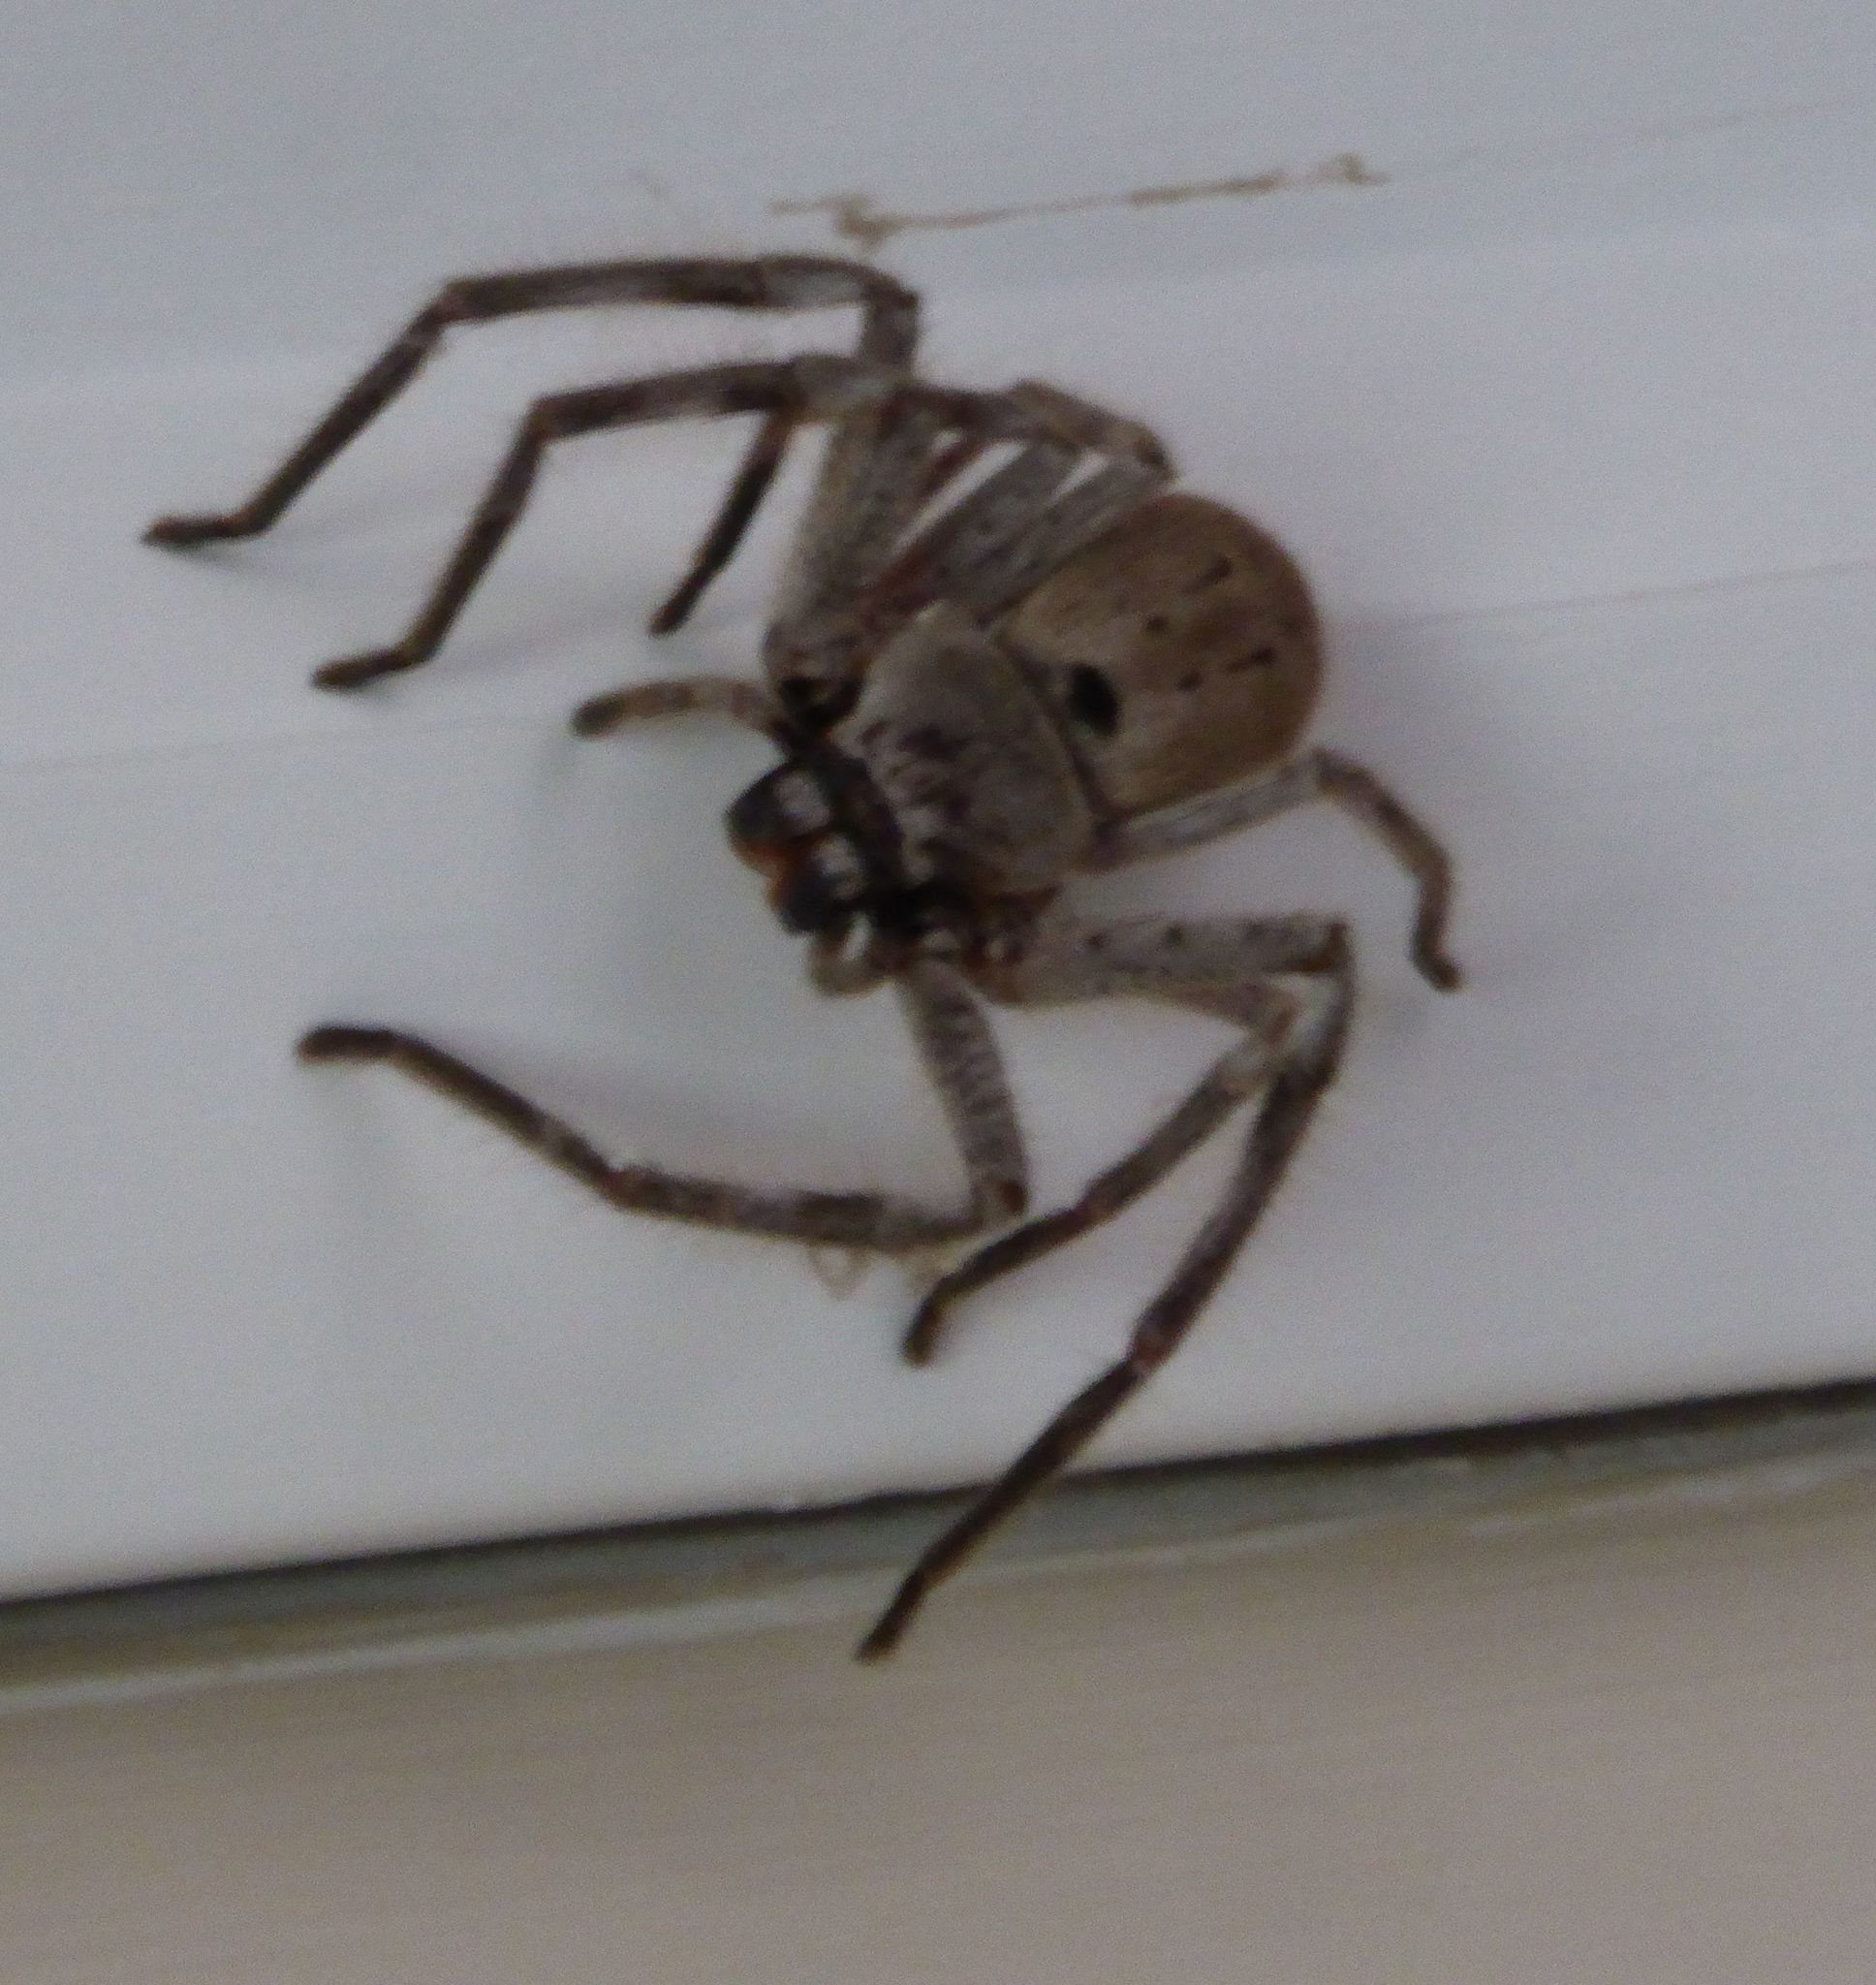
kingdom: Animalia
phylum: Arthropoda
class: Arachnida
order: Araneae
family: Sparassidae
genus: Isopeda
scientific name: Isopeda montana
